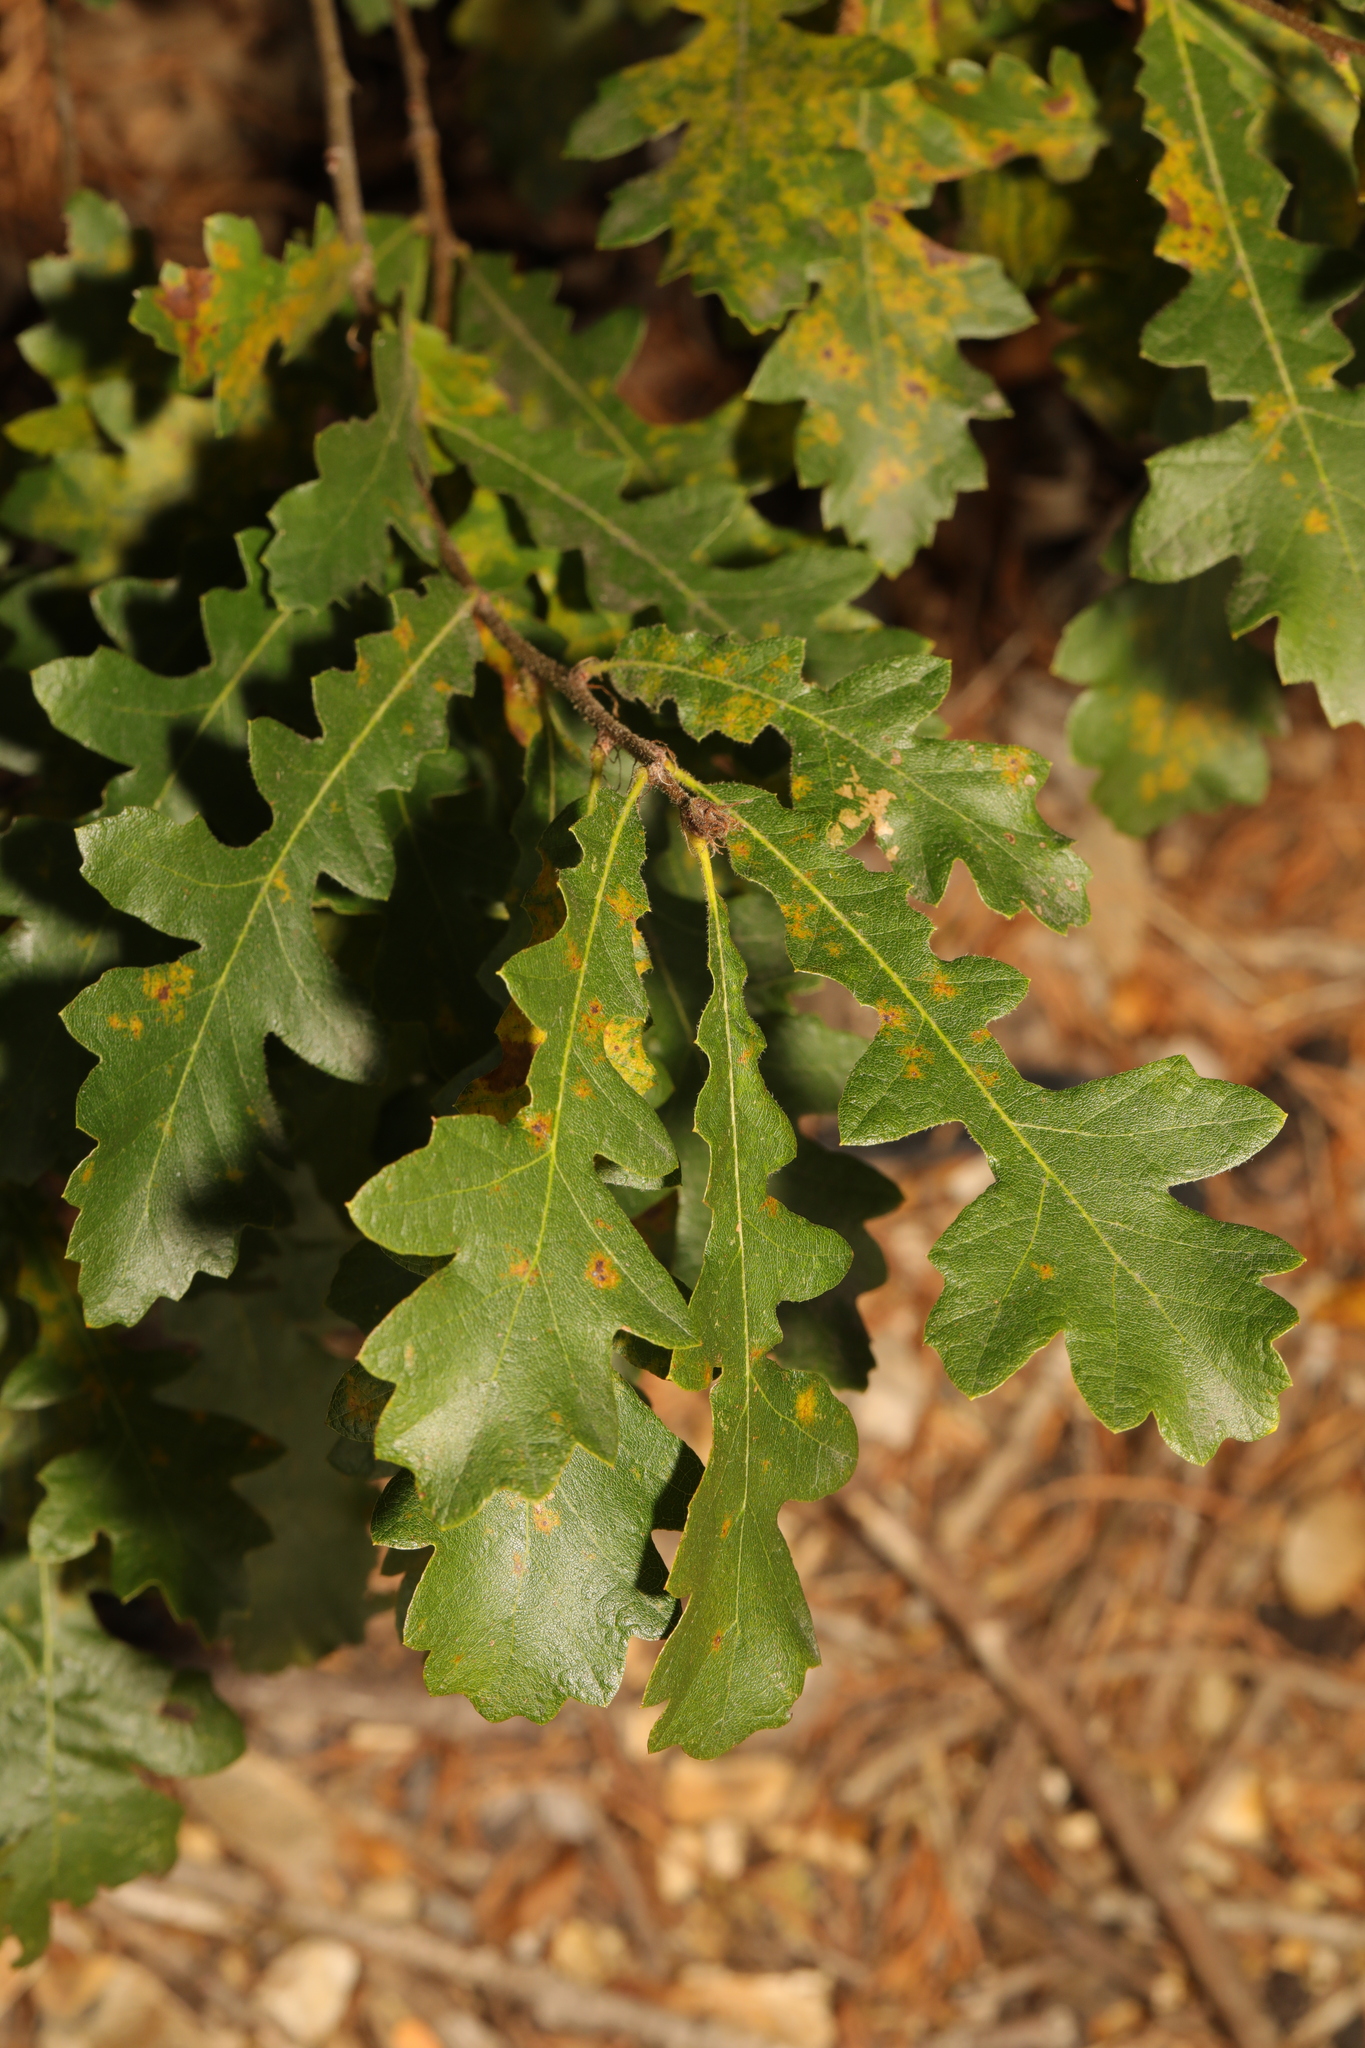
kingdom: Plantae
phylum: Tracheophyta
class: Magnoliopsida
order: Fagales
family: Fagaceae
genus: Quercus
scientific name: Quercus cerris
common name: Turkey oak
